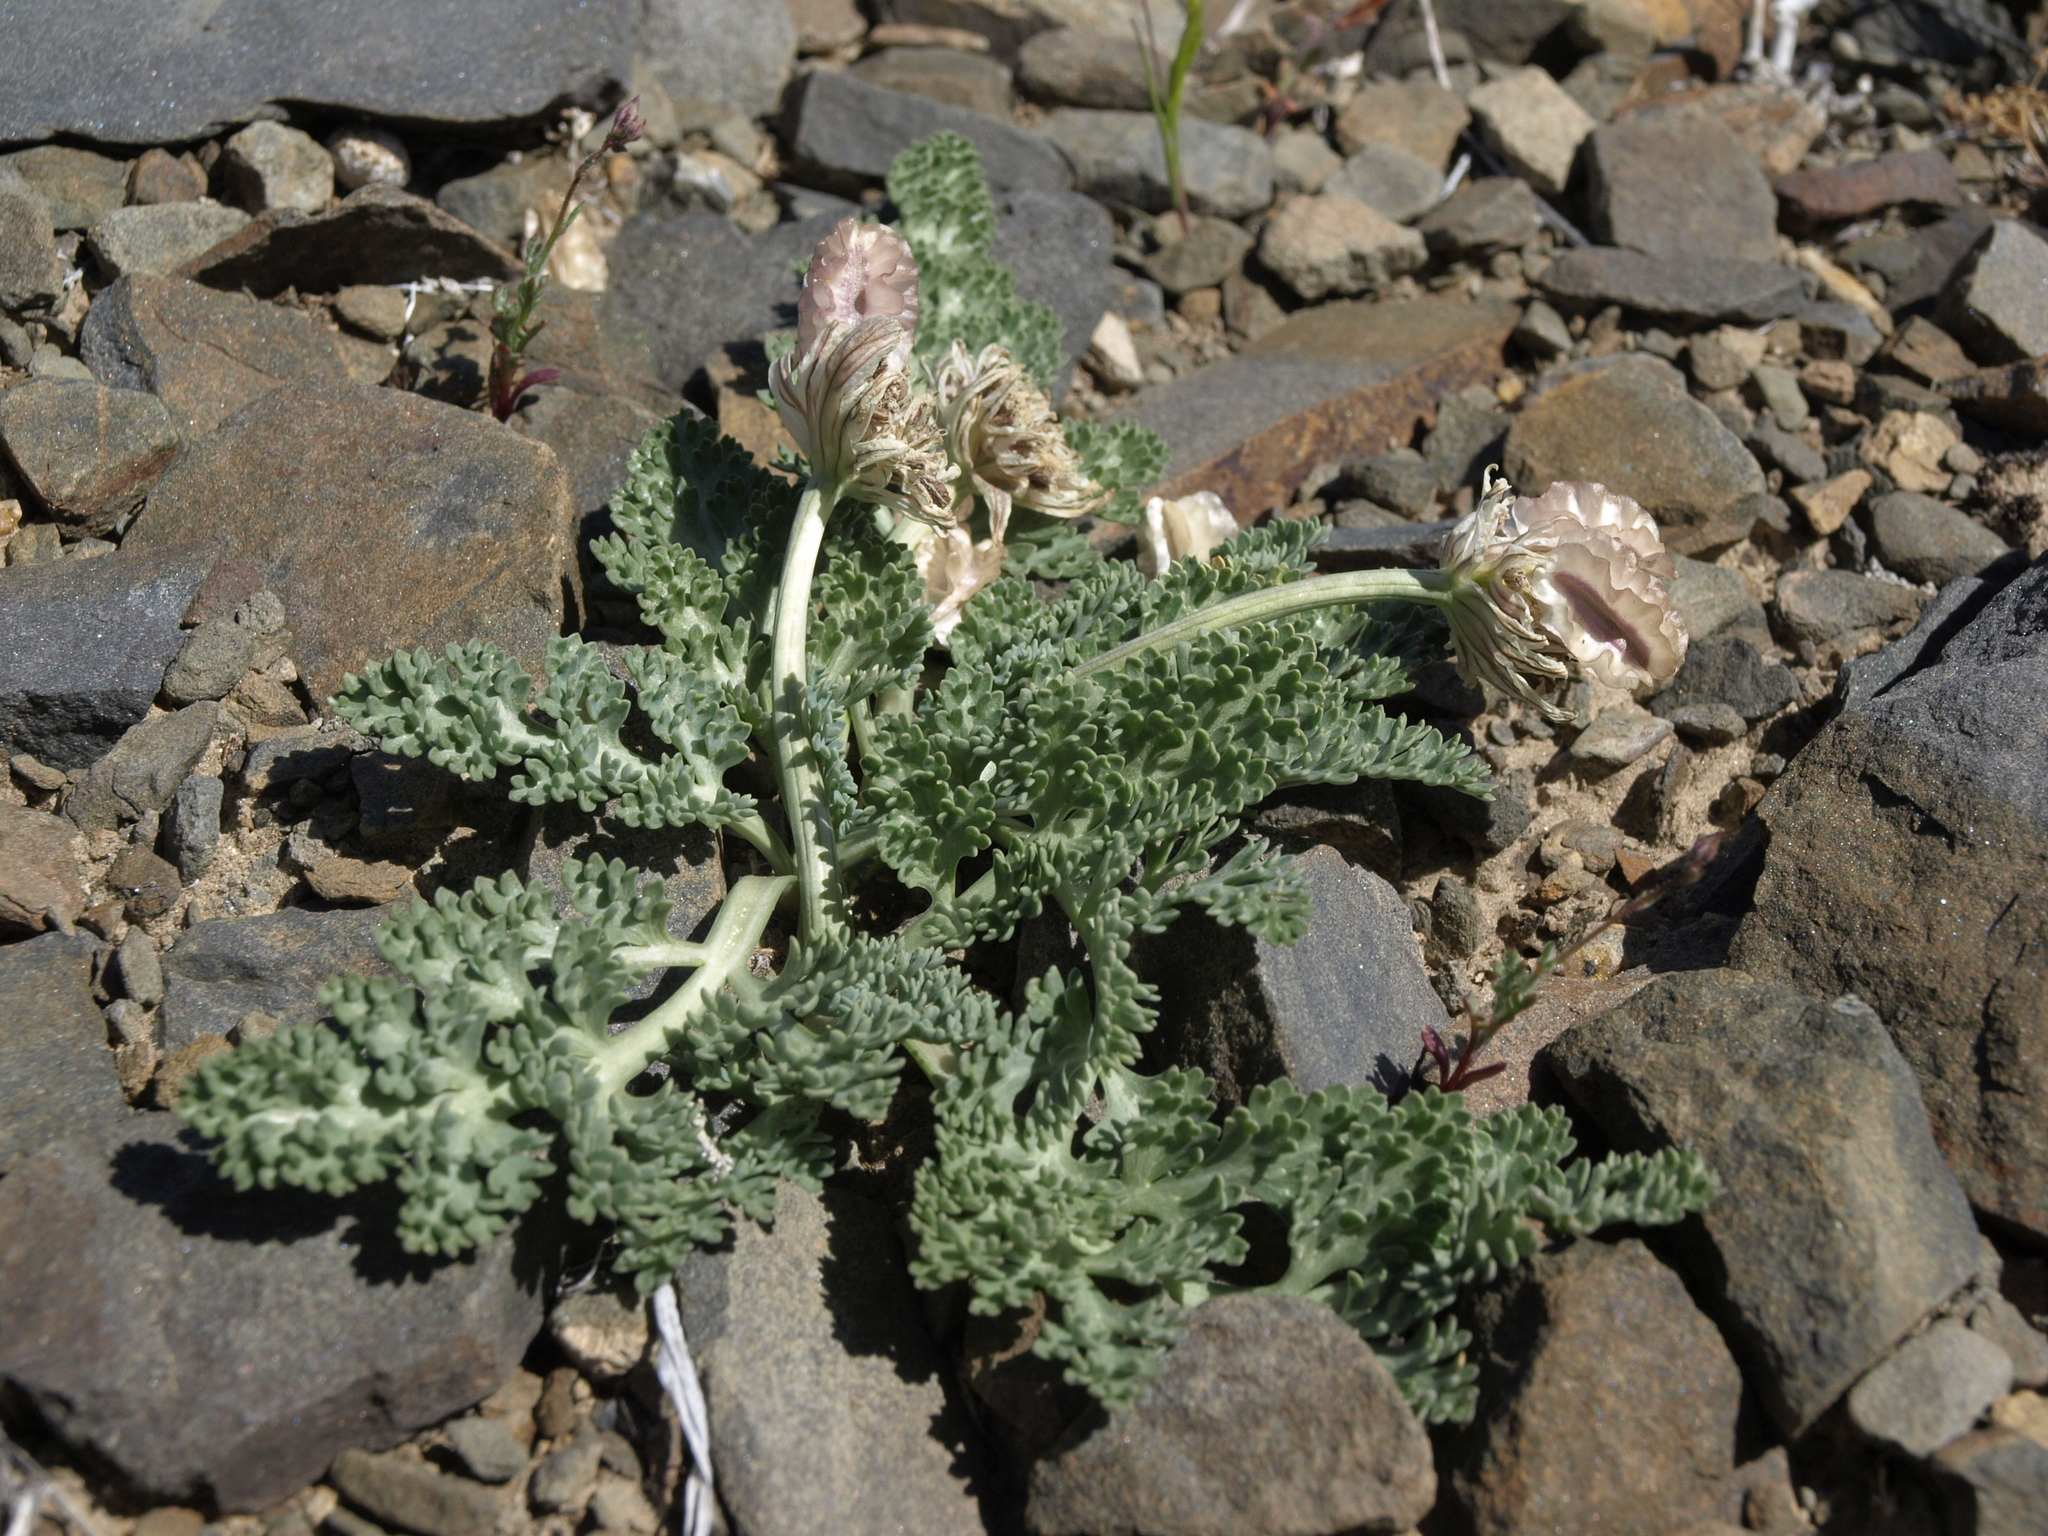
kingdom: Plantae
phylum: Tracheophyta
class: Magnoliopsida
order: Apiales
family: Apiaceae
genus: Vesper
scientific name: Vesper purpurascens
